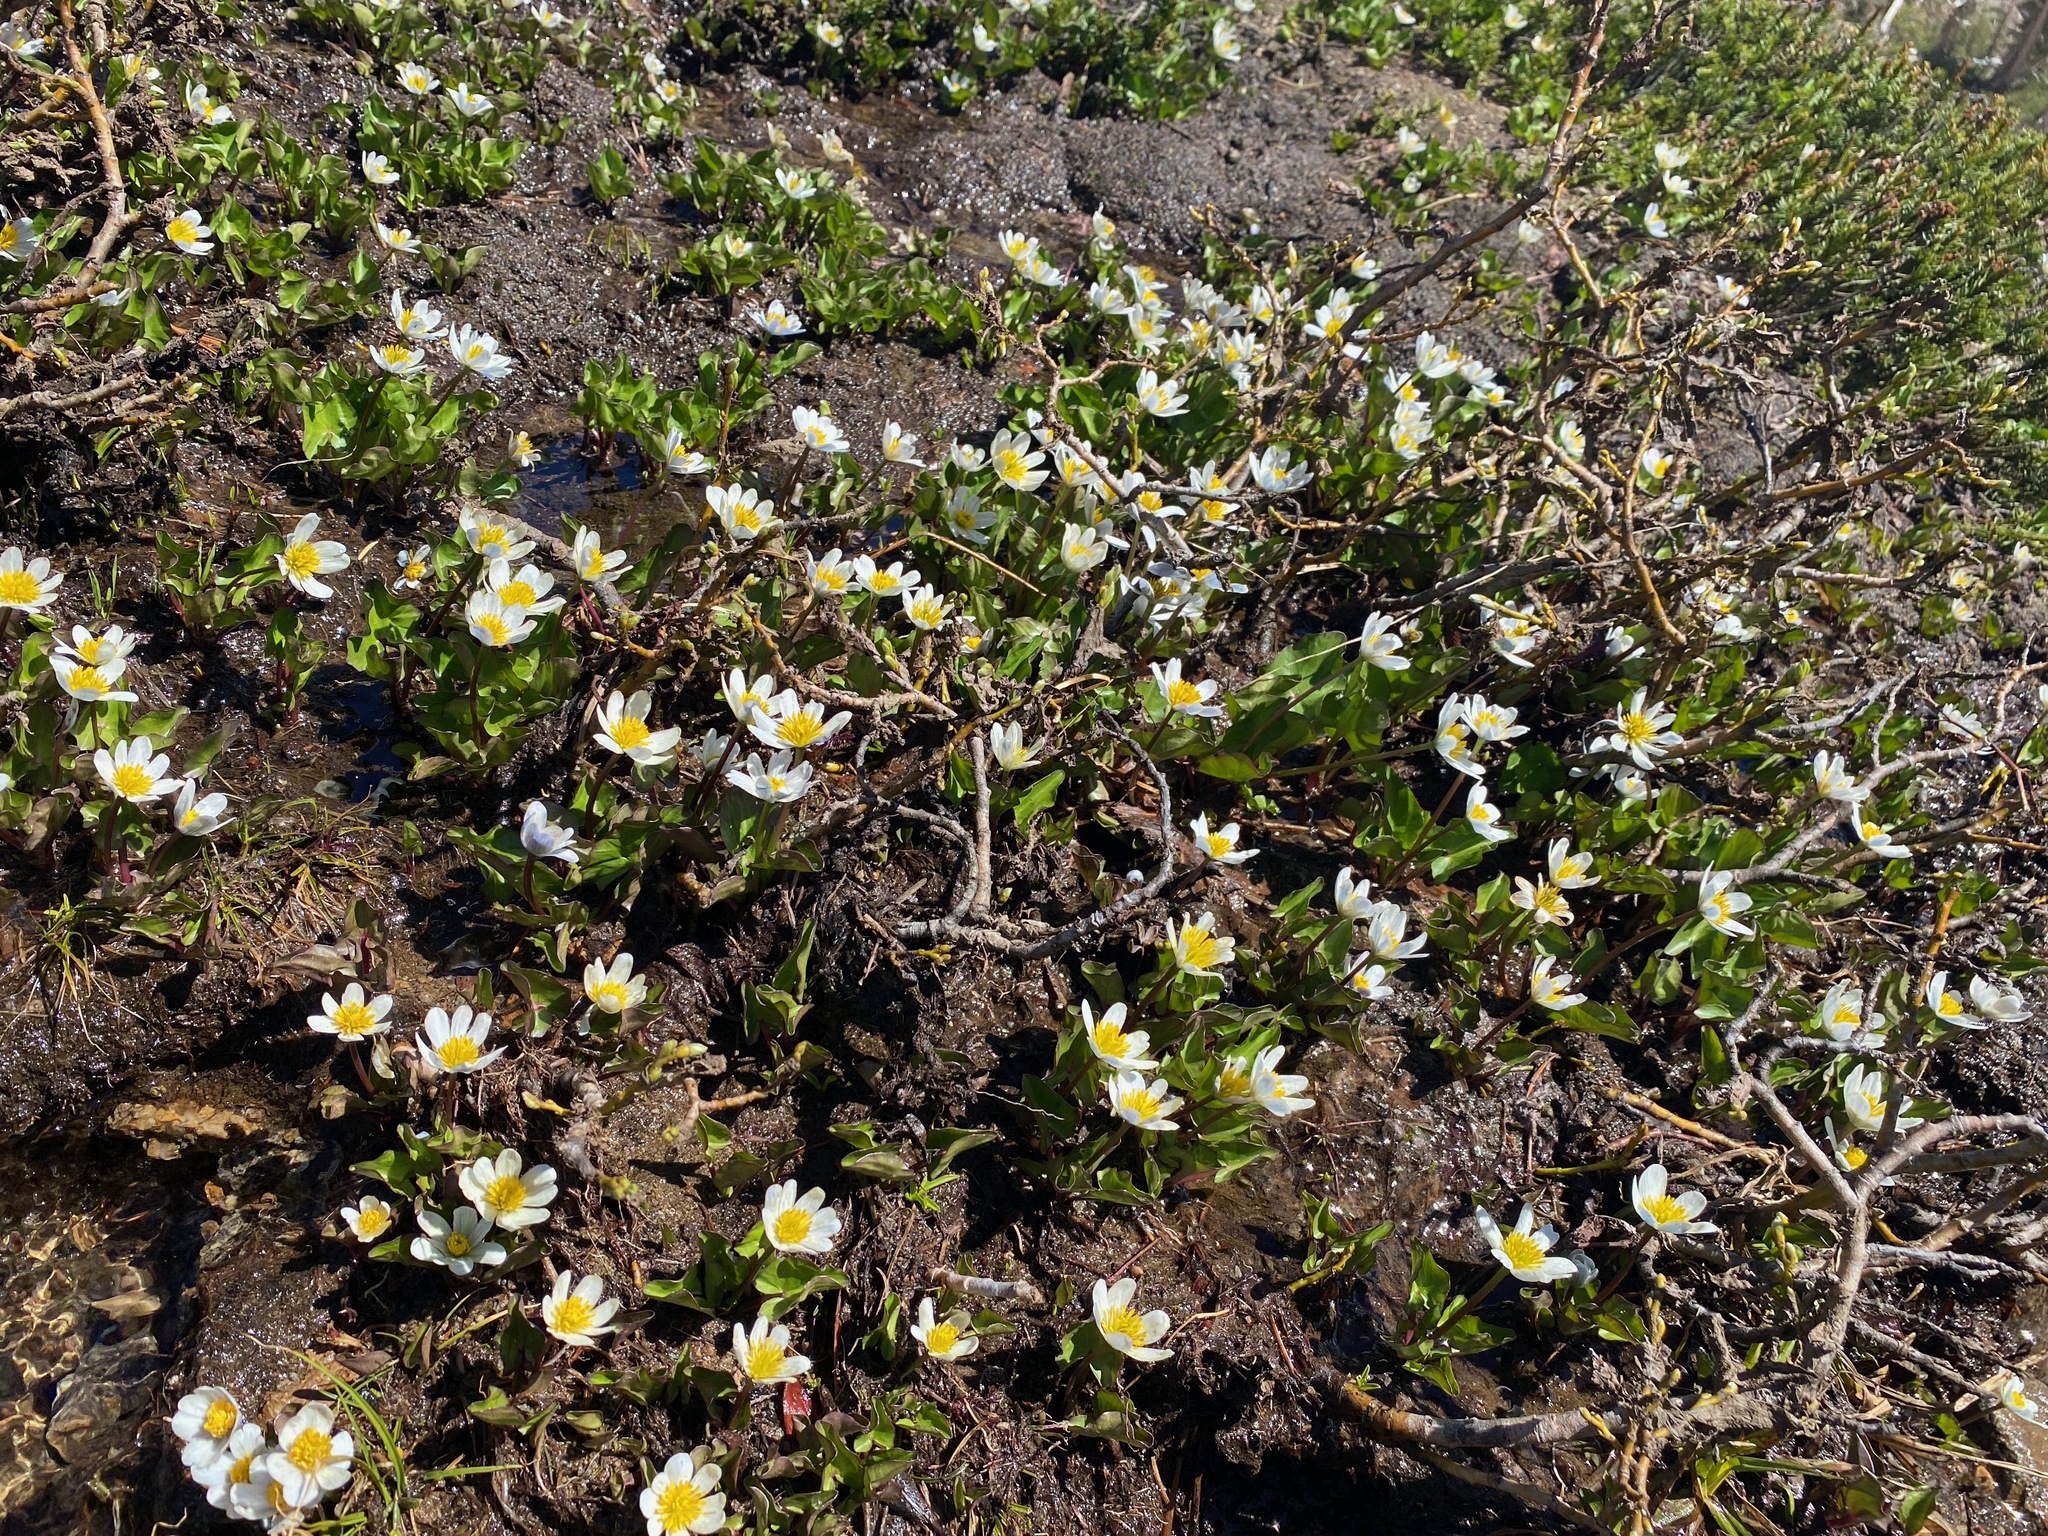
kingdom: Plantae
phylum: Tracheophyta
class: Magnoliopsida
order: Ranunculales
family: Ranunculaceae
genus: Caltha
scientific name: Caltha leptosepala
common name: Elkslip
